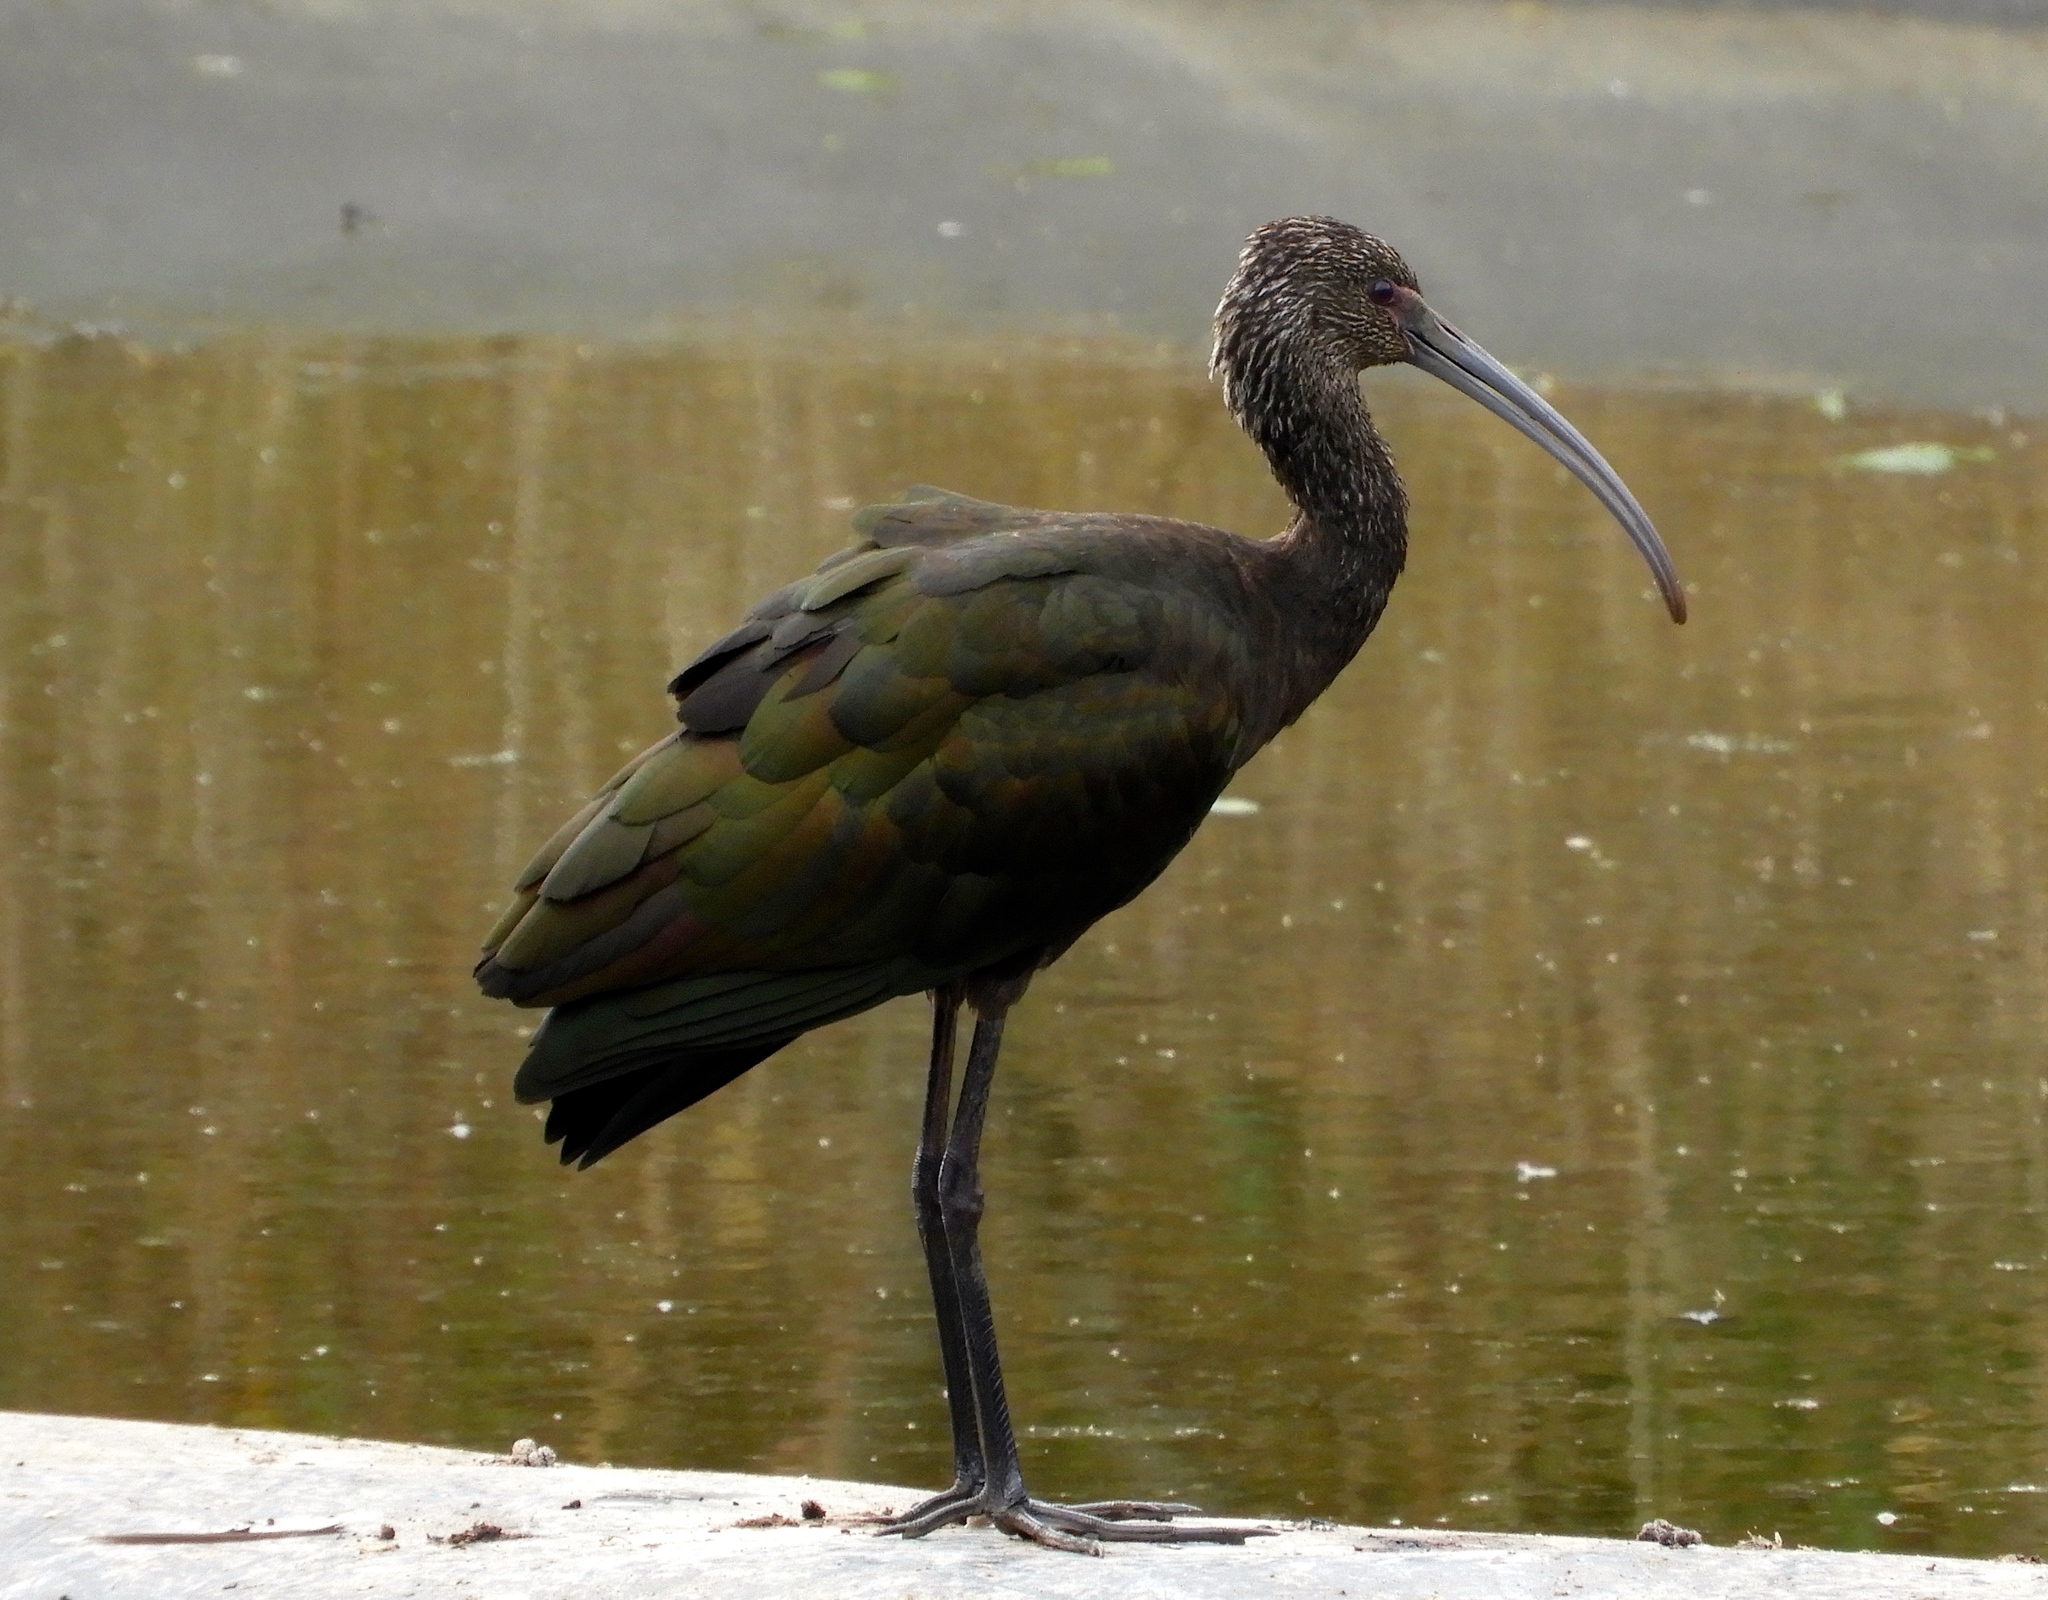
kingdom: Animalia
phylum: Chordata
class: Aves
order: Pelecaniformes
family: Threskiornithidae
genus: Plegadis
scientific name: Plegadis chihi
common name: White-faced ibis
